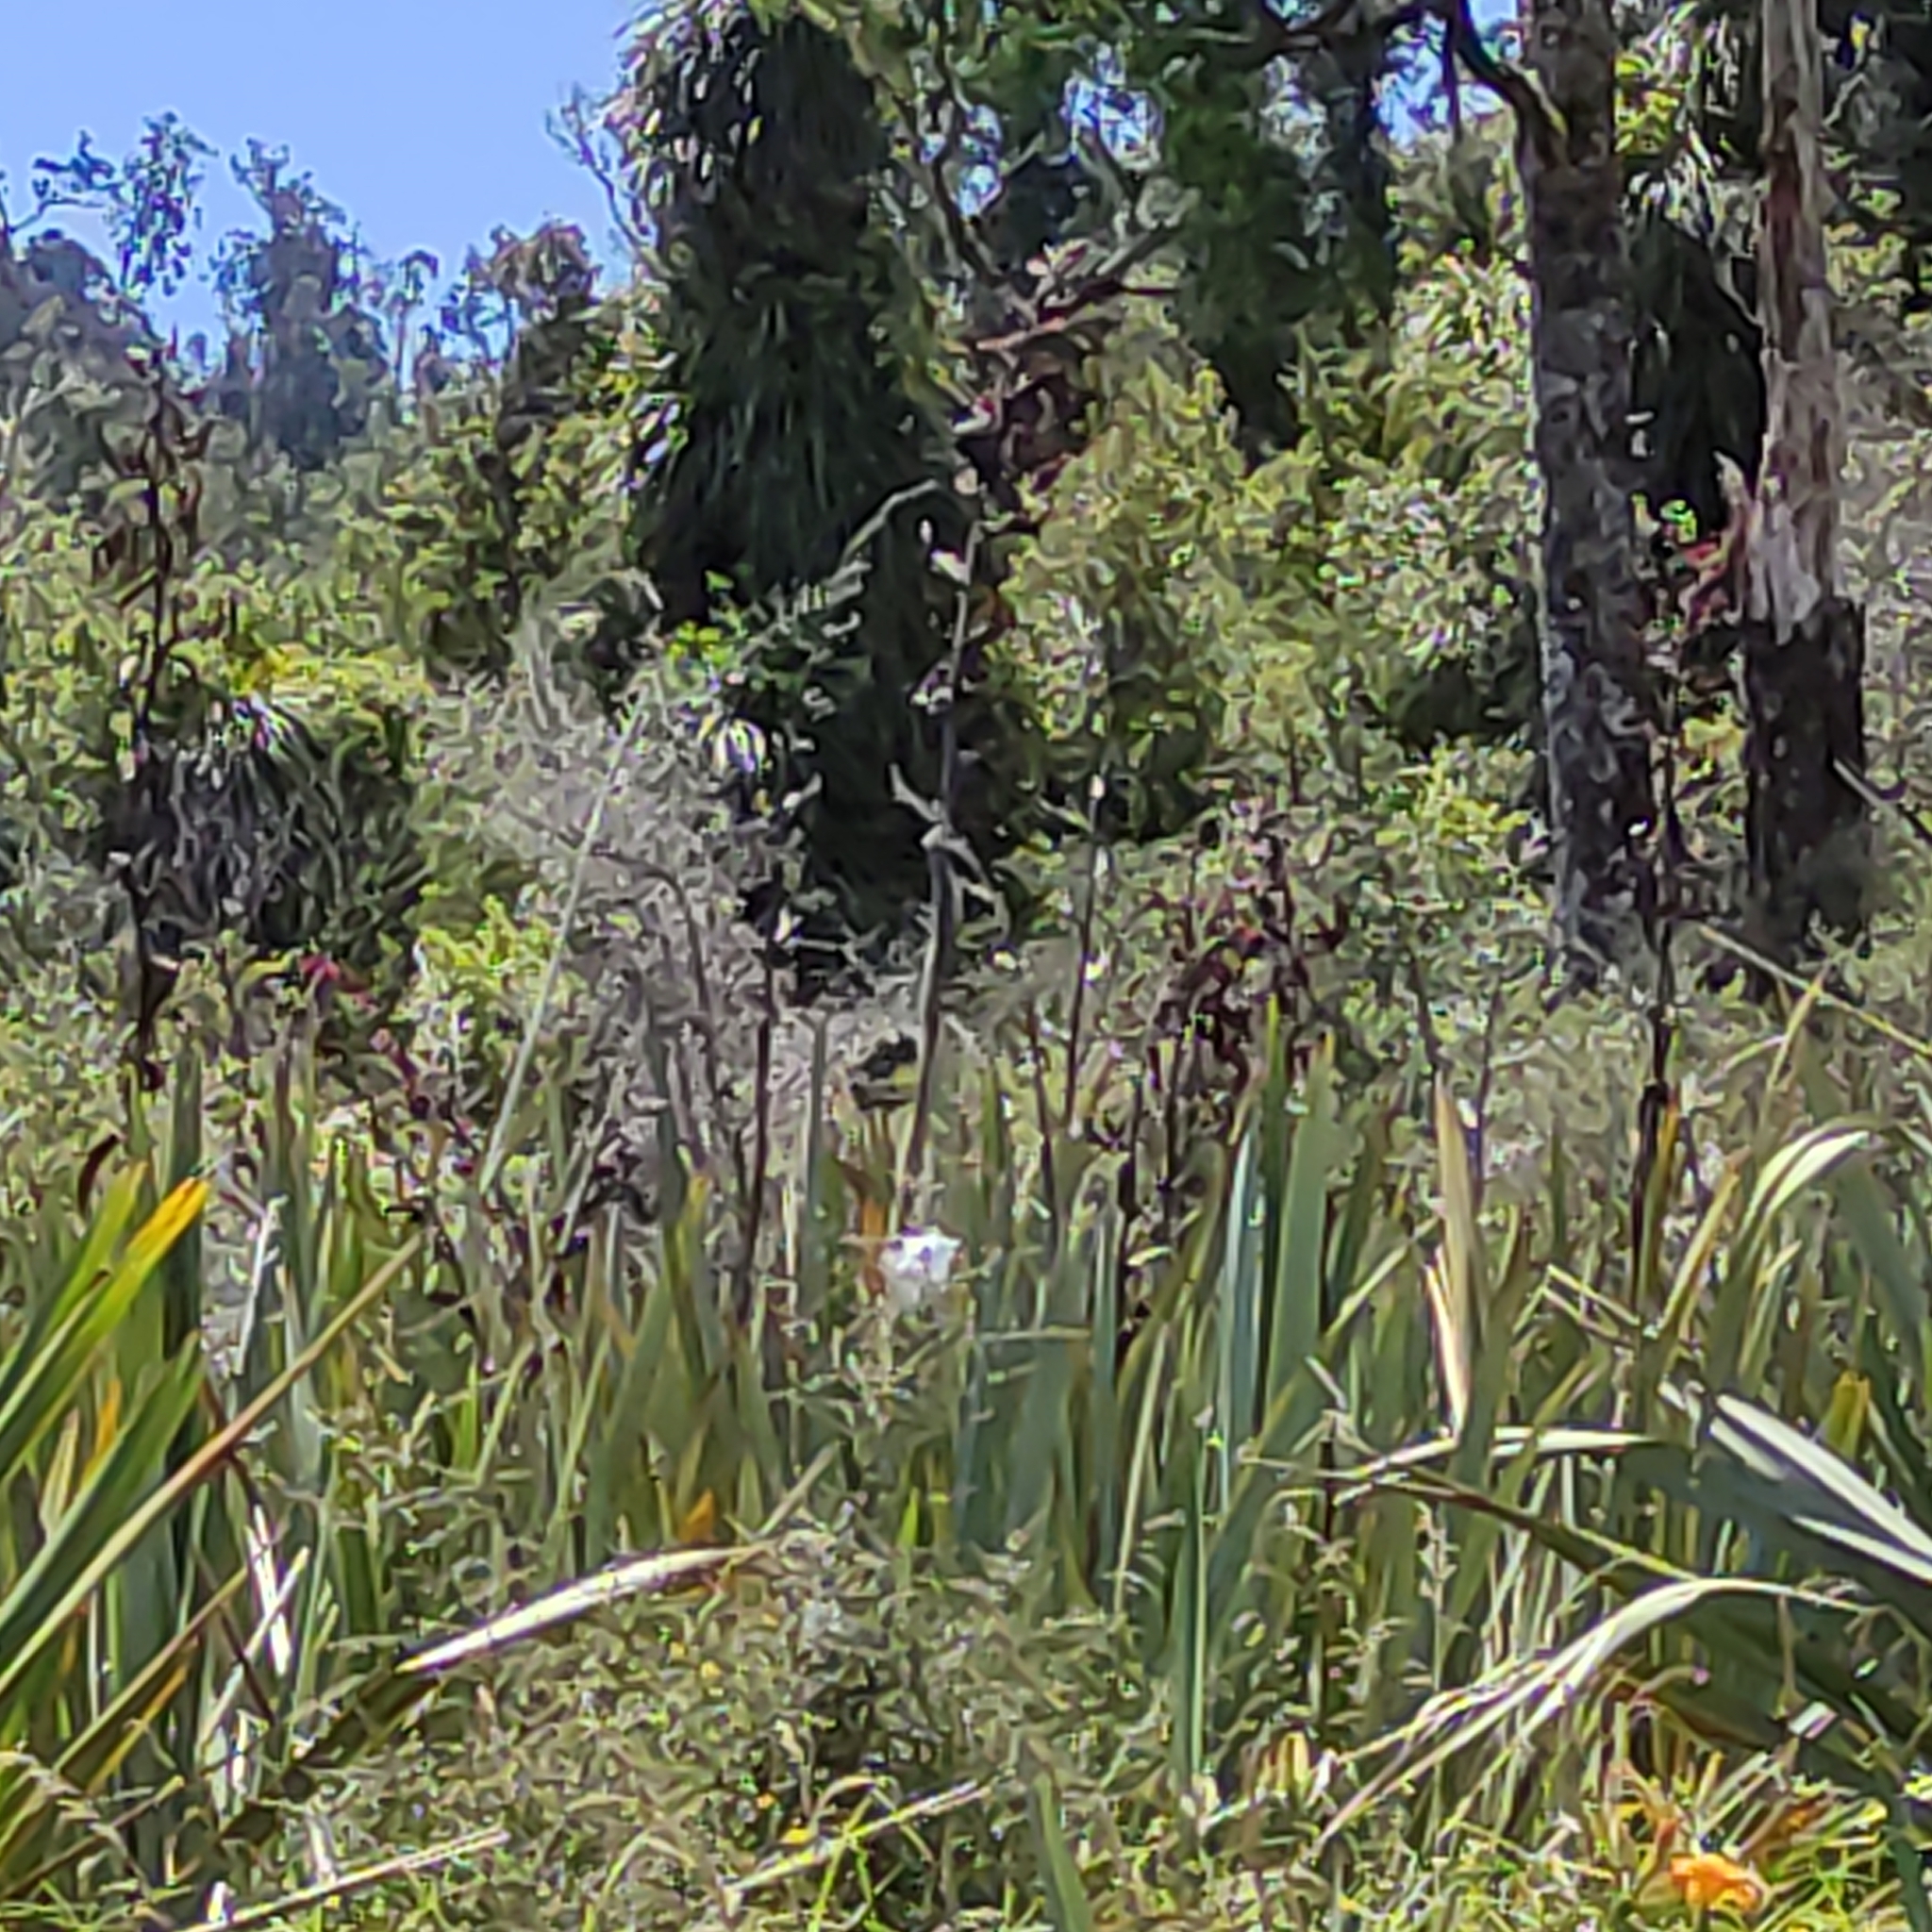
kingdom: Animalia
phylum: Chordata
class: Aves
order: Passeriformes
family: Meliphagidae
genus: Prosthemadera
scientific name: Prosthemadera novaeseelandiae
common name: Tui
